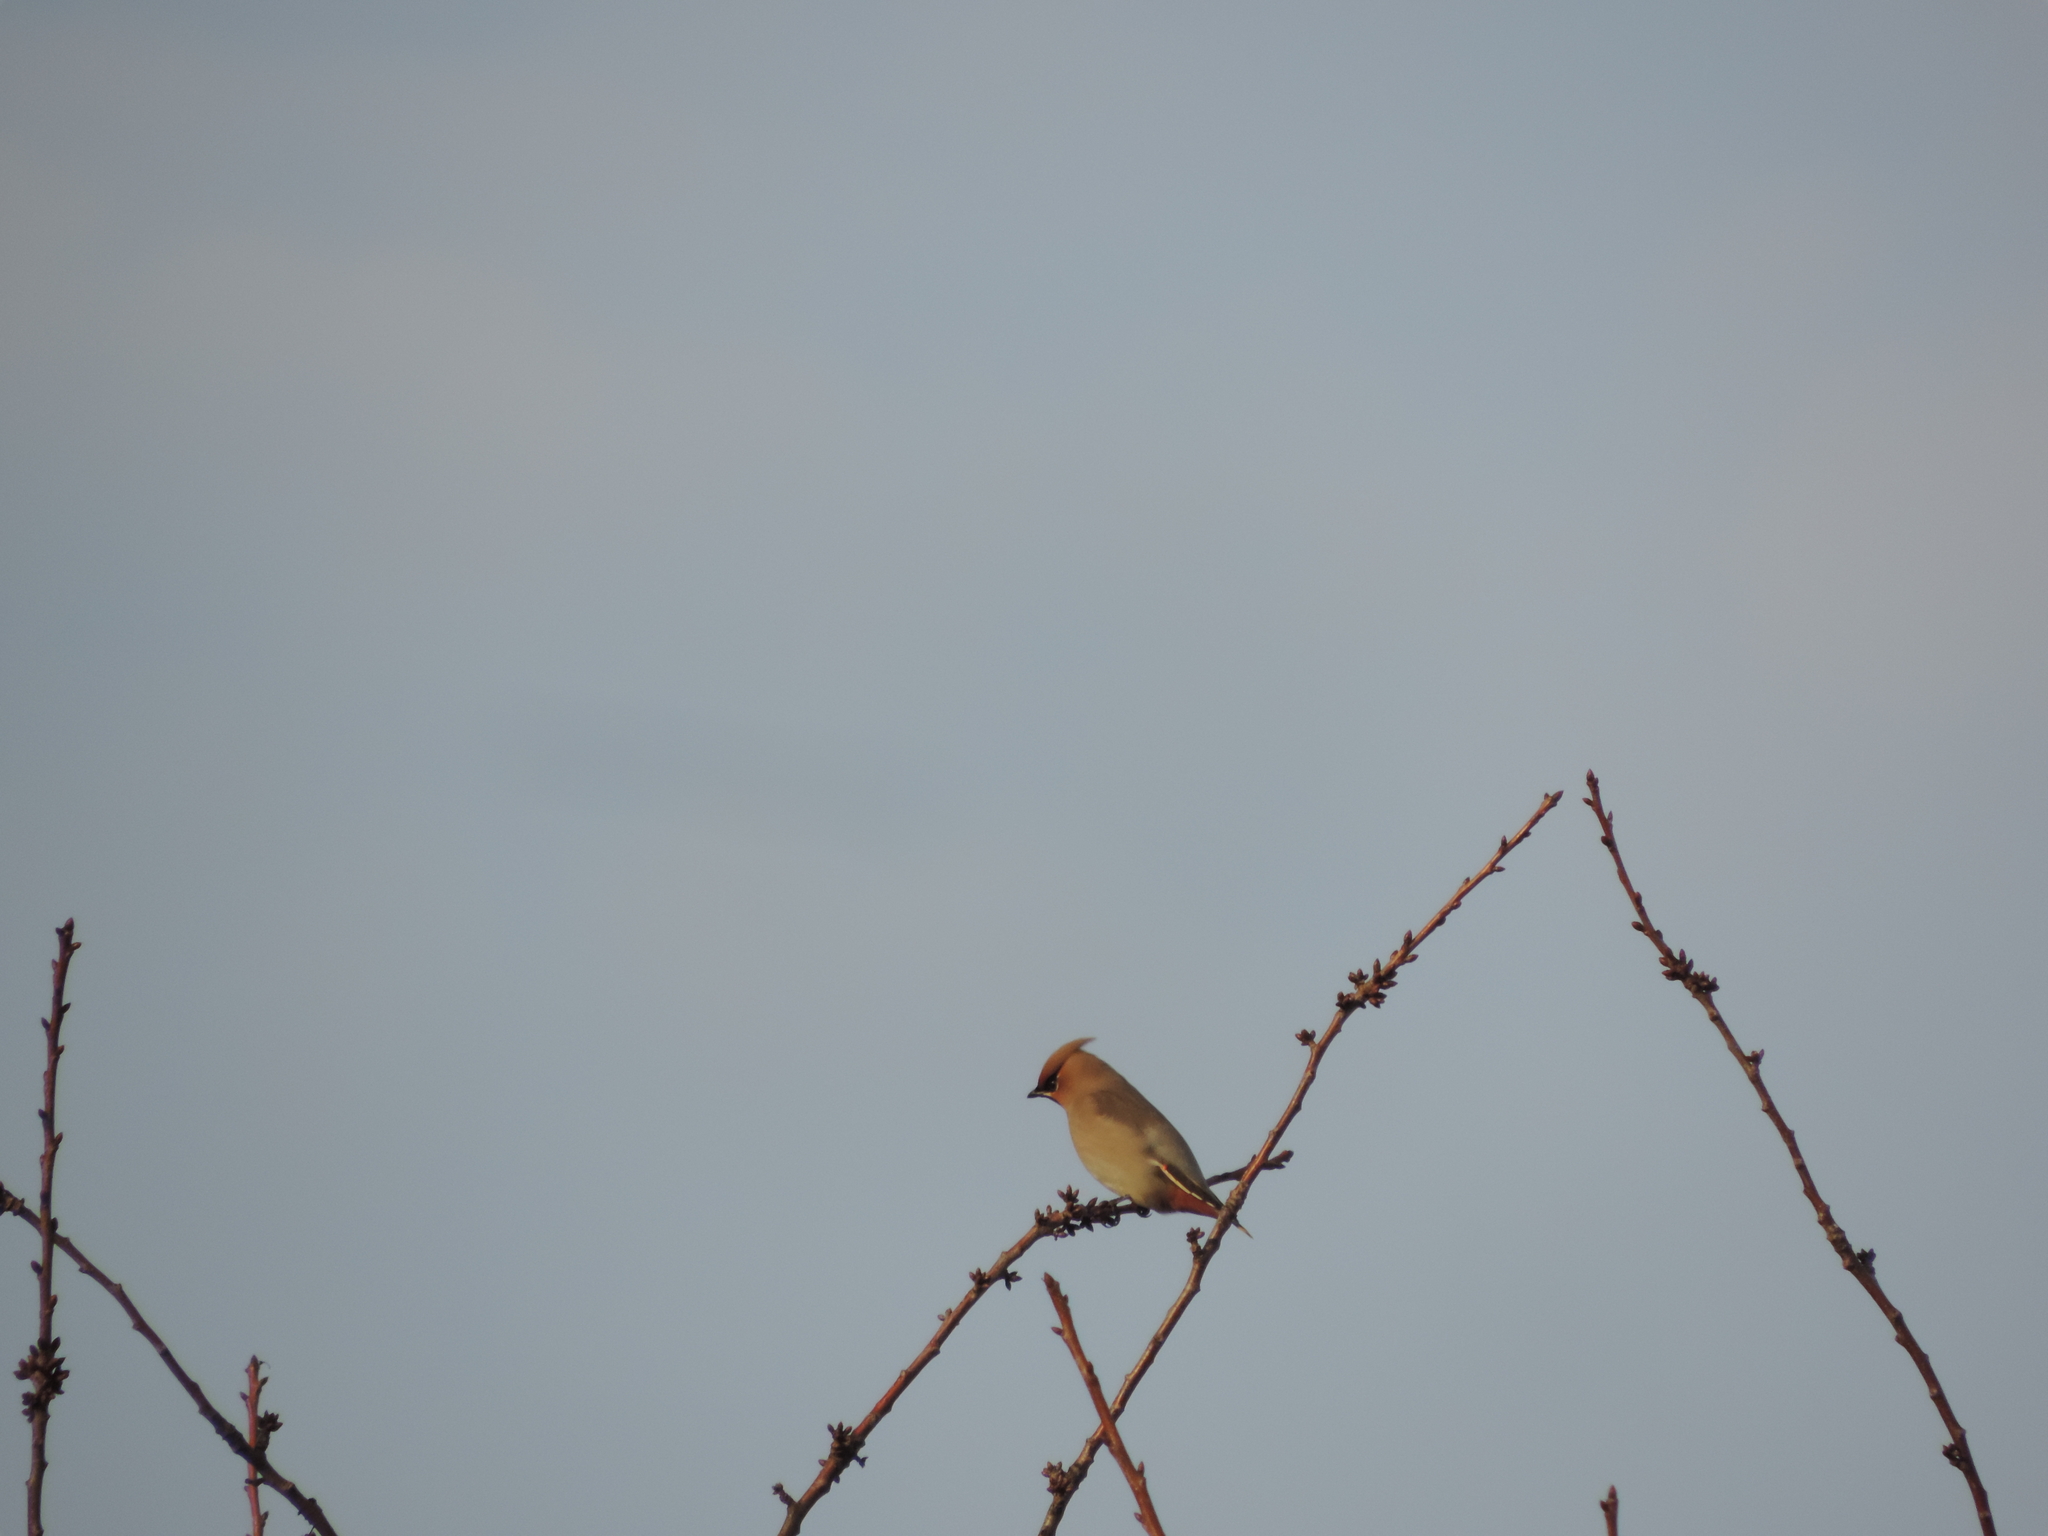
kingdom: Animalia
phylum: Chordata
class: Aves
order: Passeriformes
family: Bombycillidae
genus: Bombycilla
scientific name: Bombycilla garrulus
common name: Bohemian waxwing
